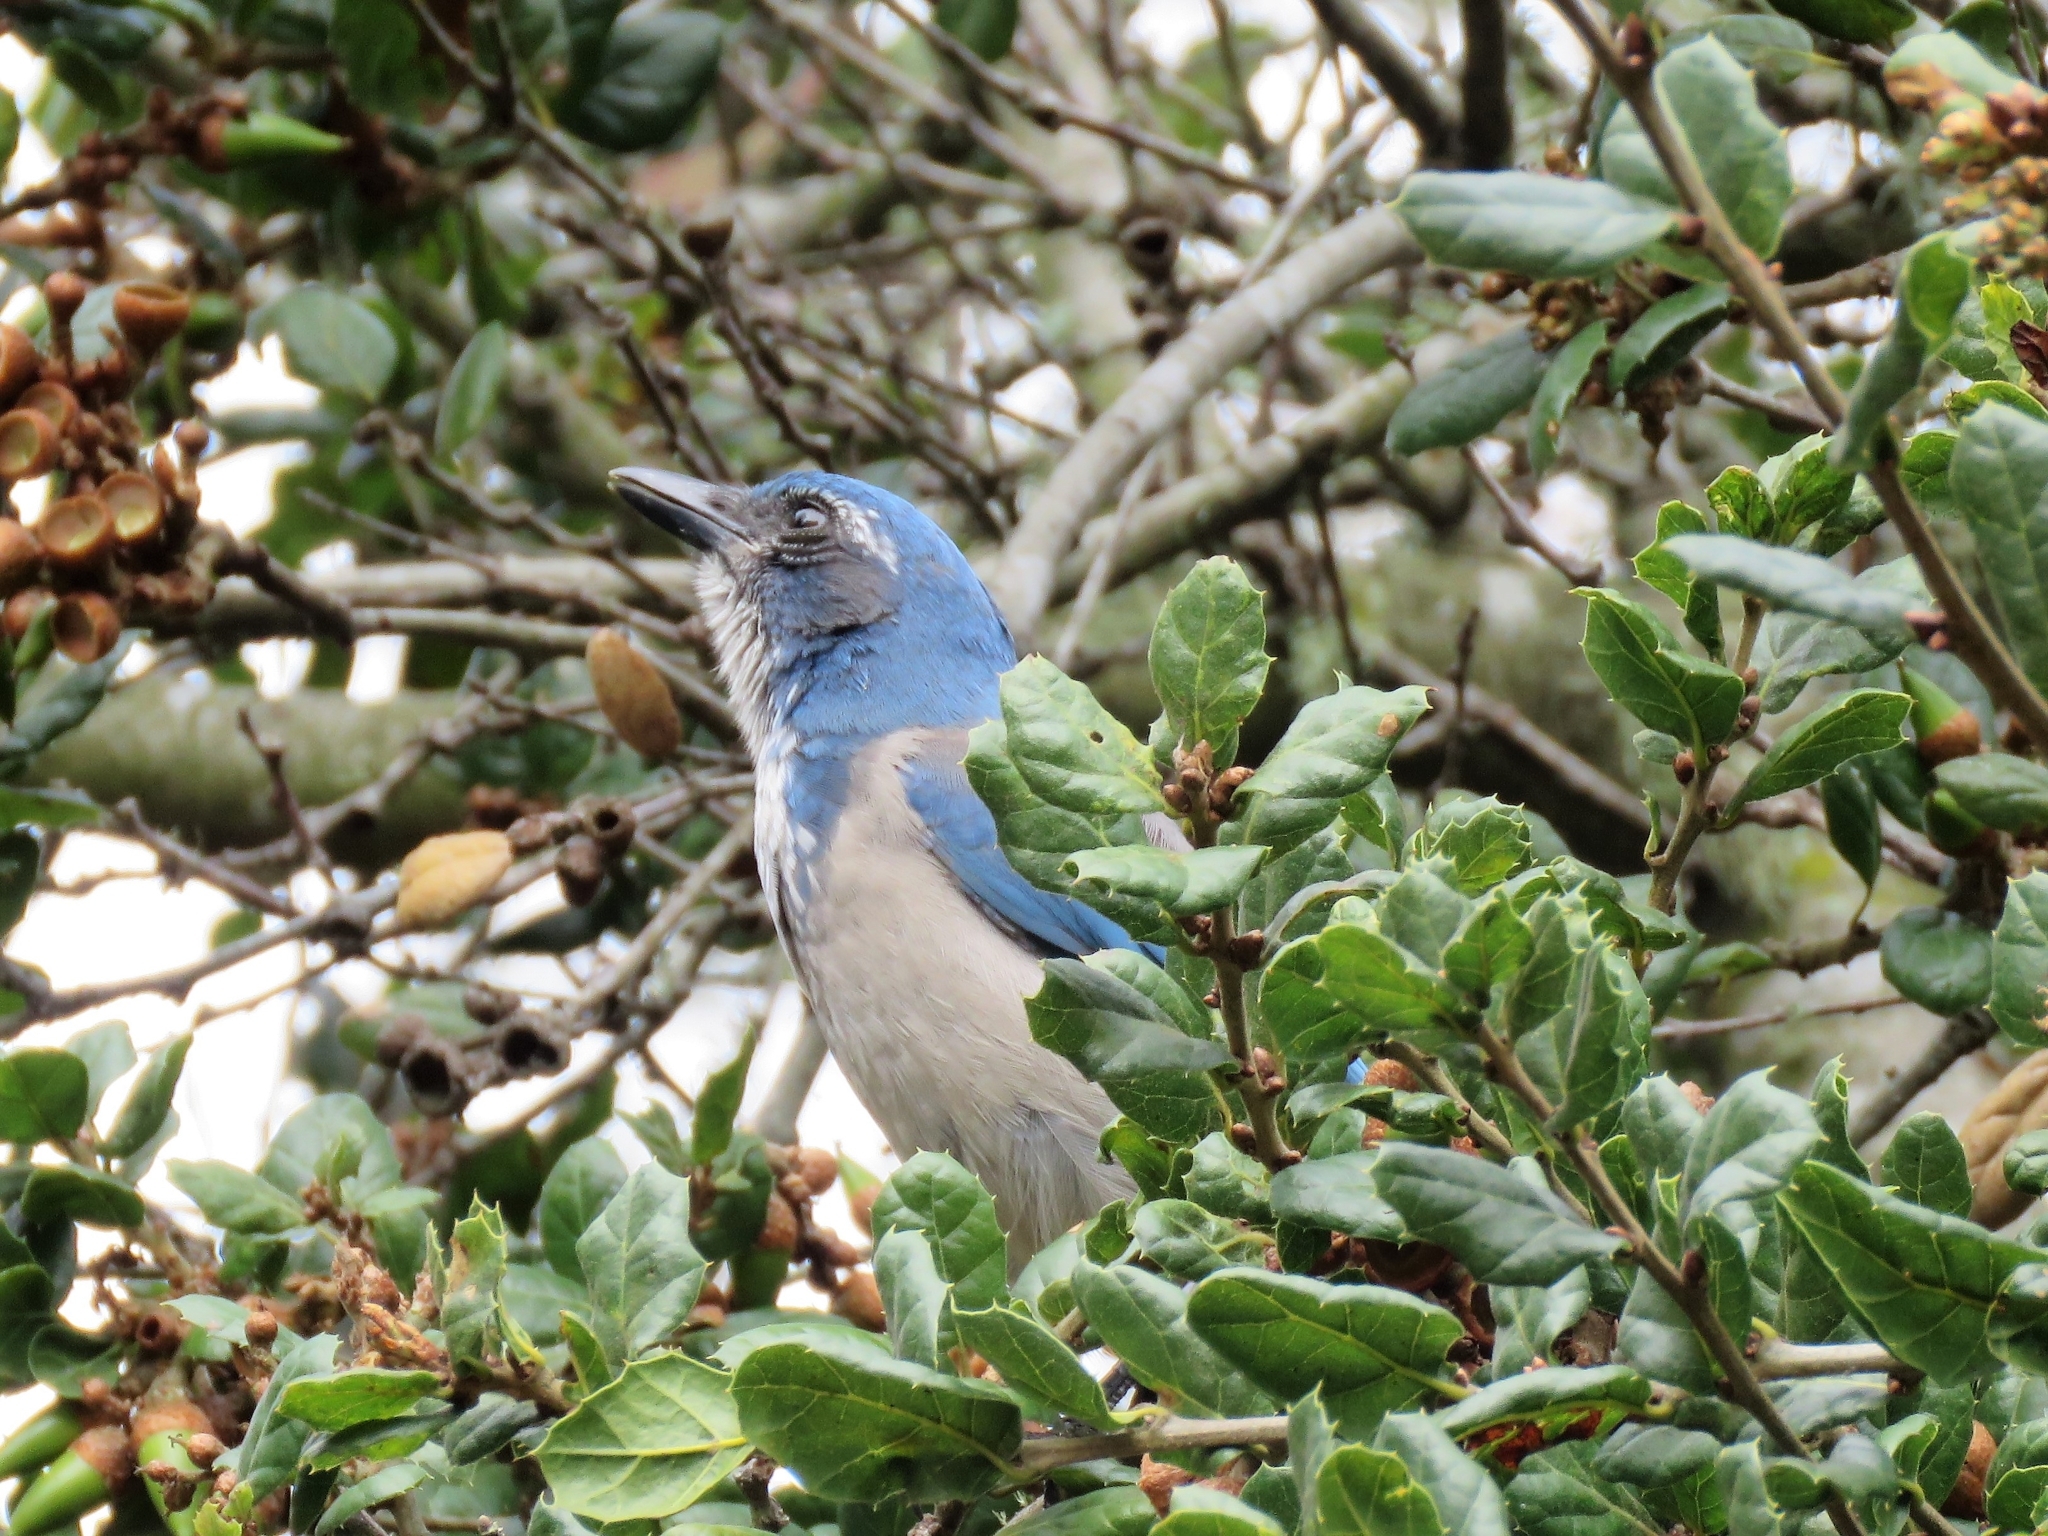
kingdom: Animalia
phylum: Chordata
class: Aves
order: Passeriformes
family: Corvidae
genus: Aphelocoma
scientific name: Aphelocoma californica
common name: California scrub-jay
